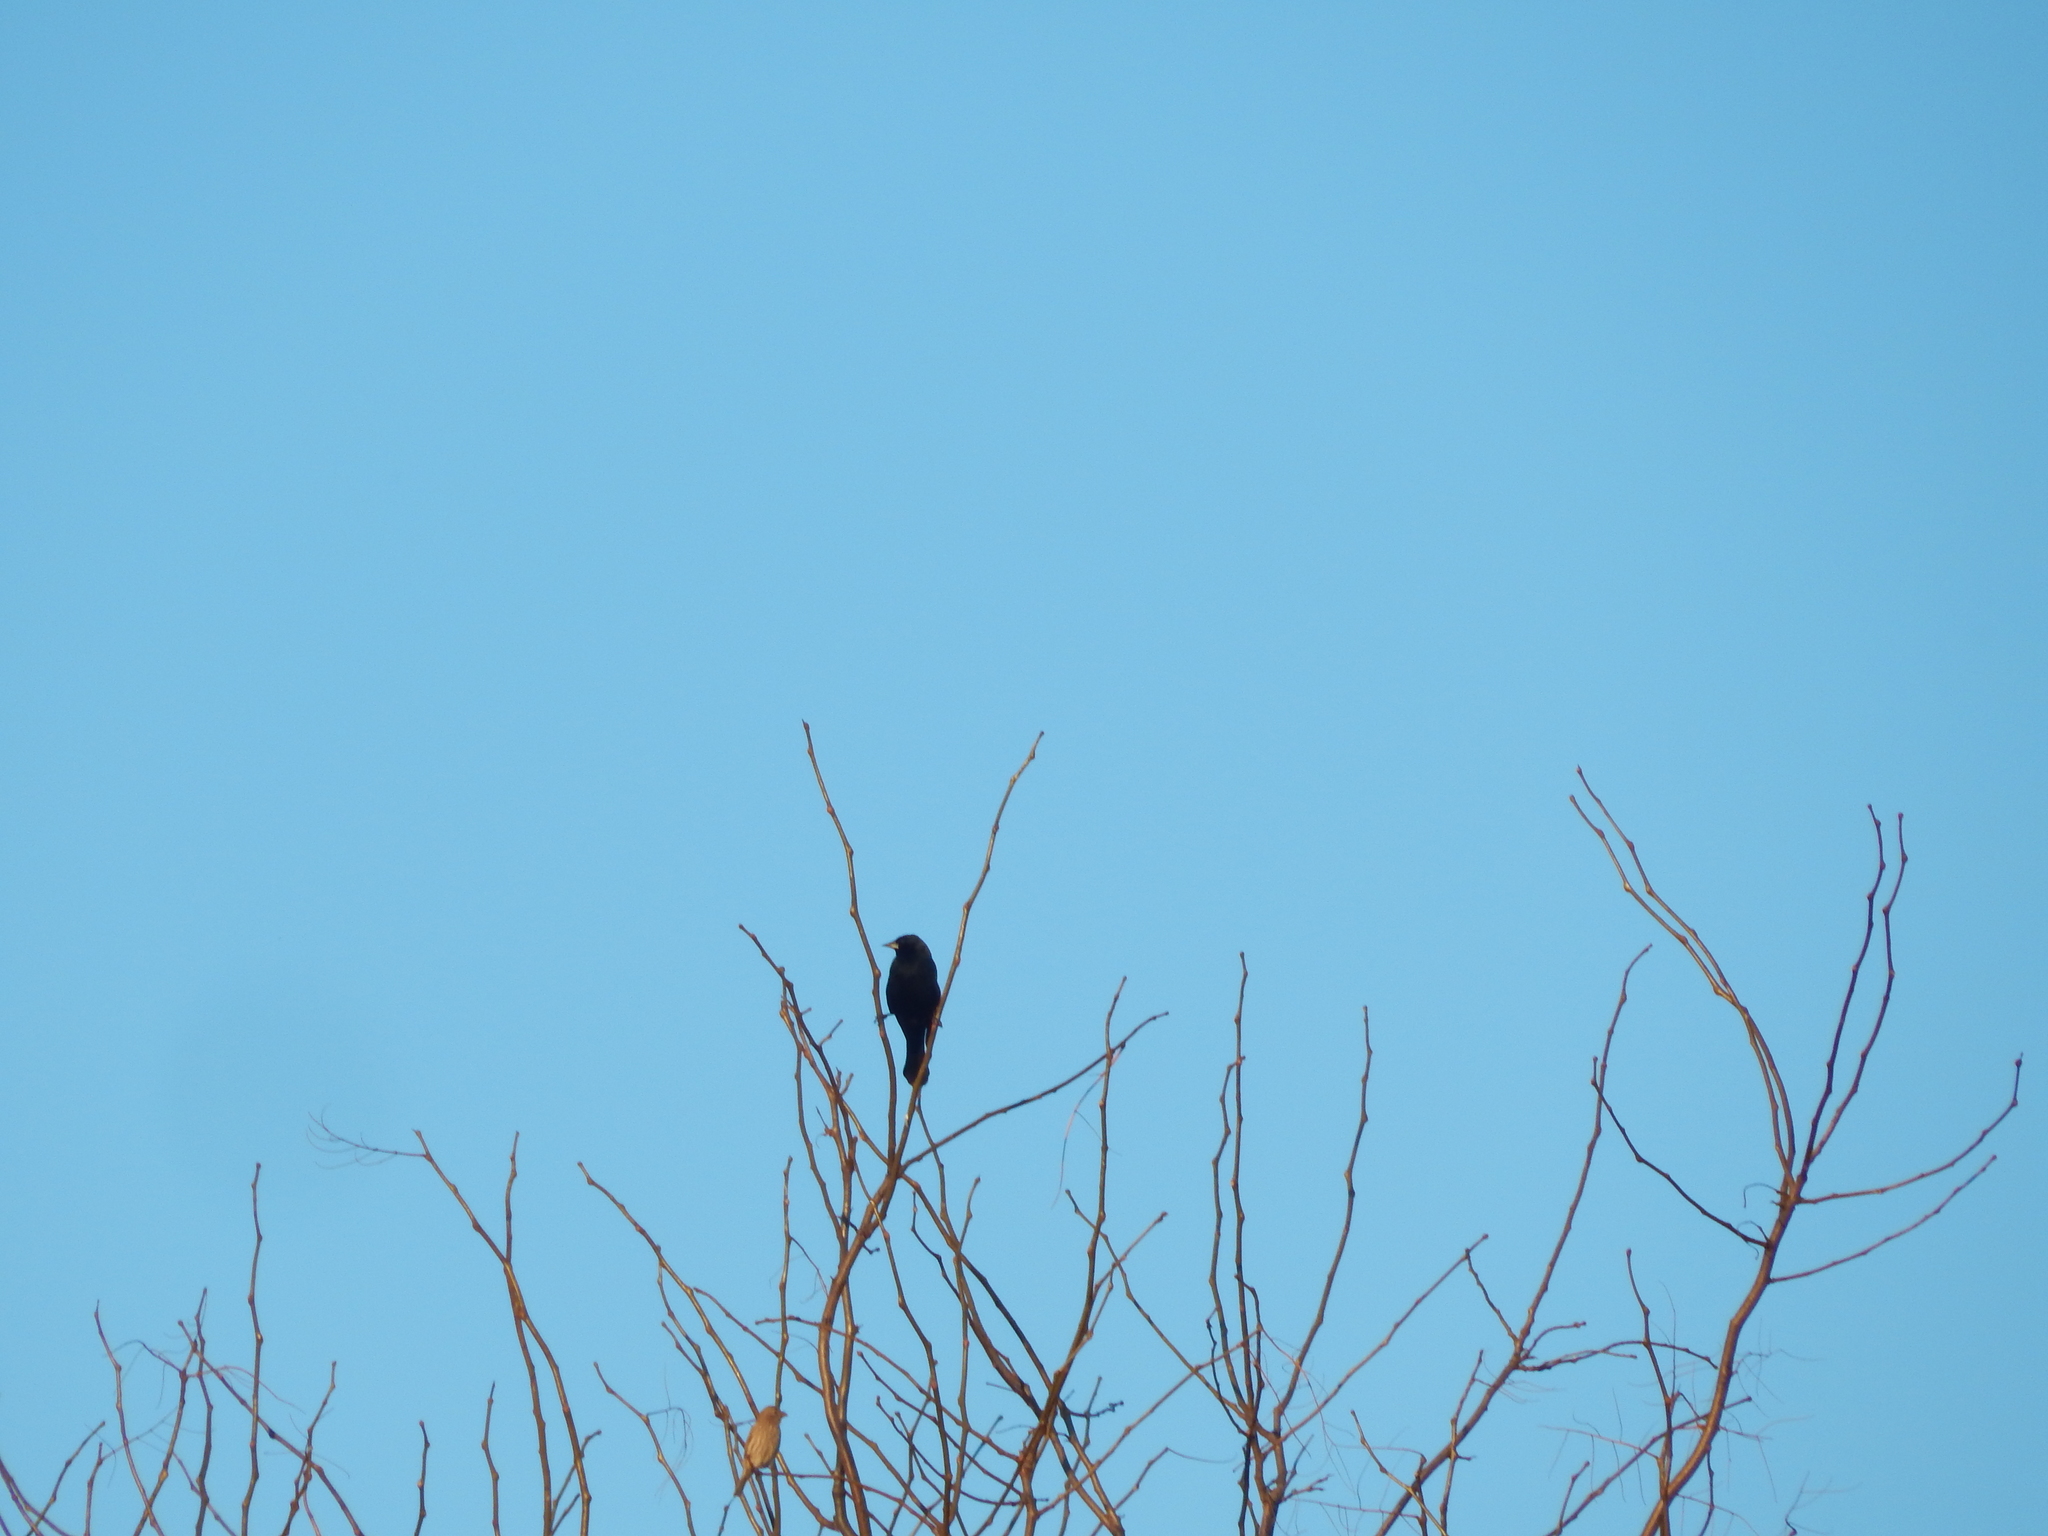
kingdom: Animalia
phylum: Chordata
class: Aves
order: Passeriformes
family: Icteridae
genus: Agelaius
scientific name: Agelaius phoeniceus
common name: Red-winged blackbird
